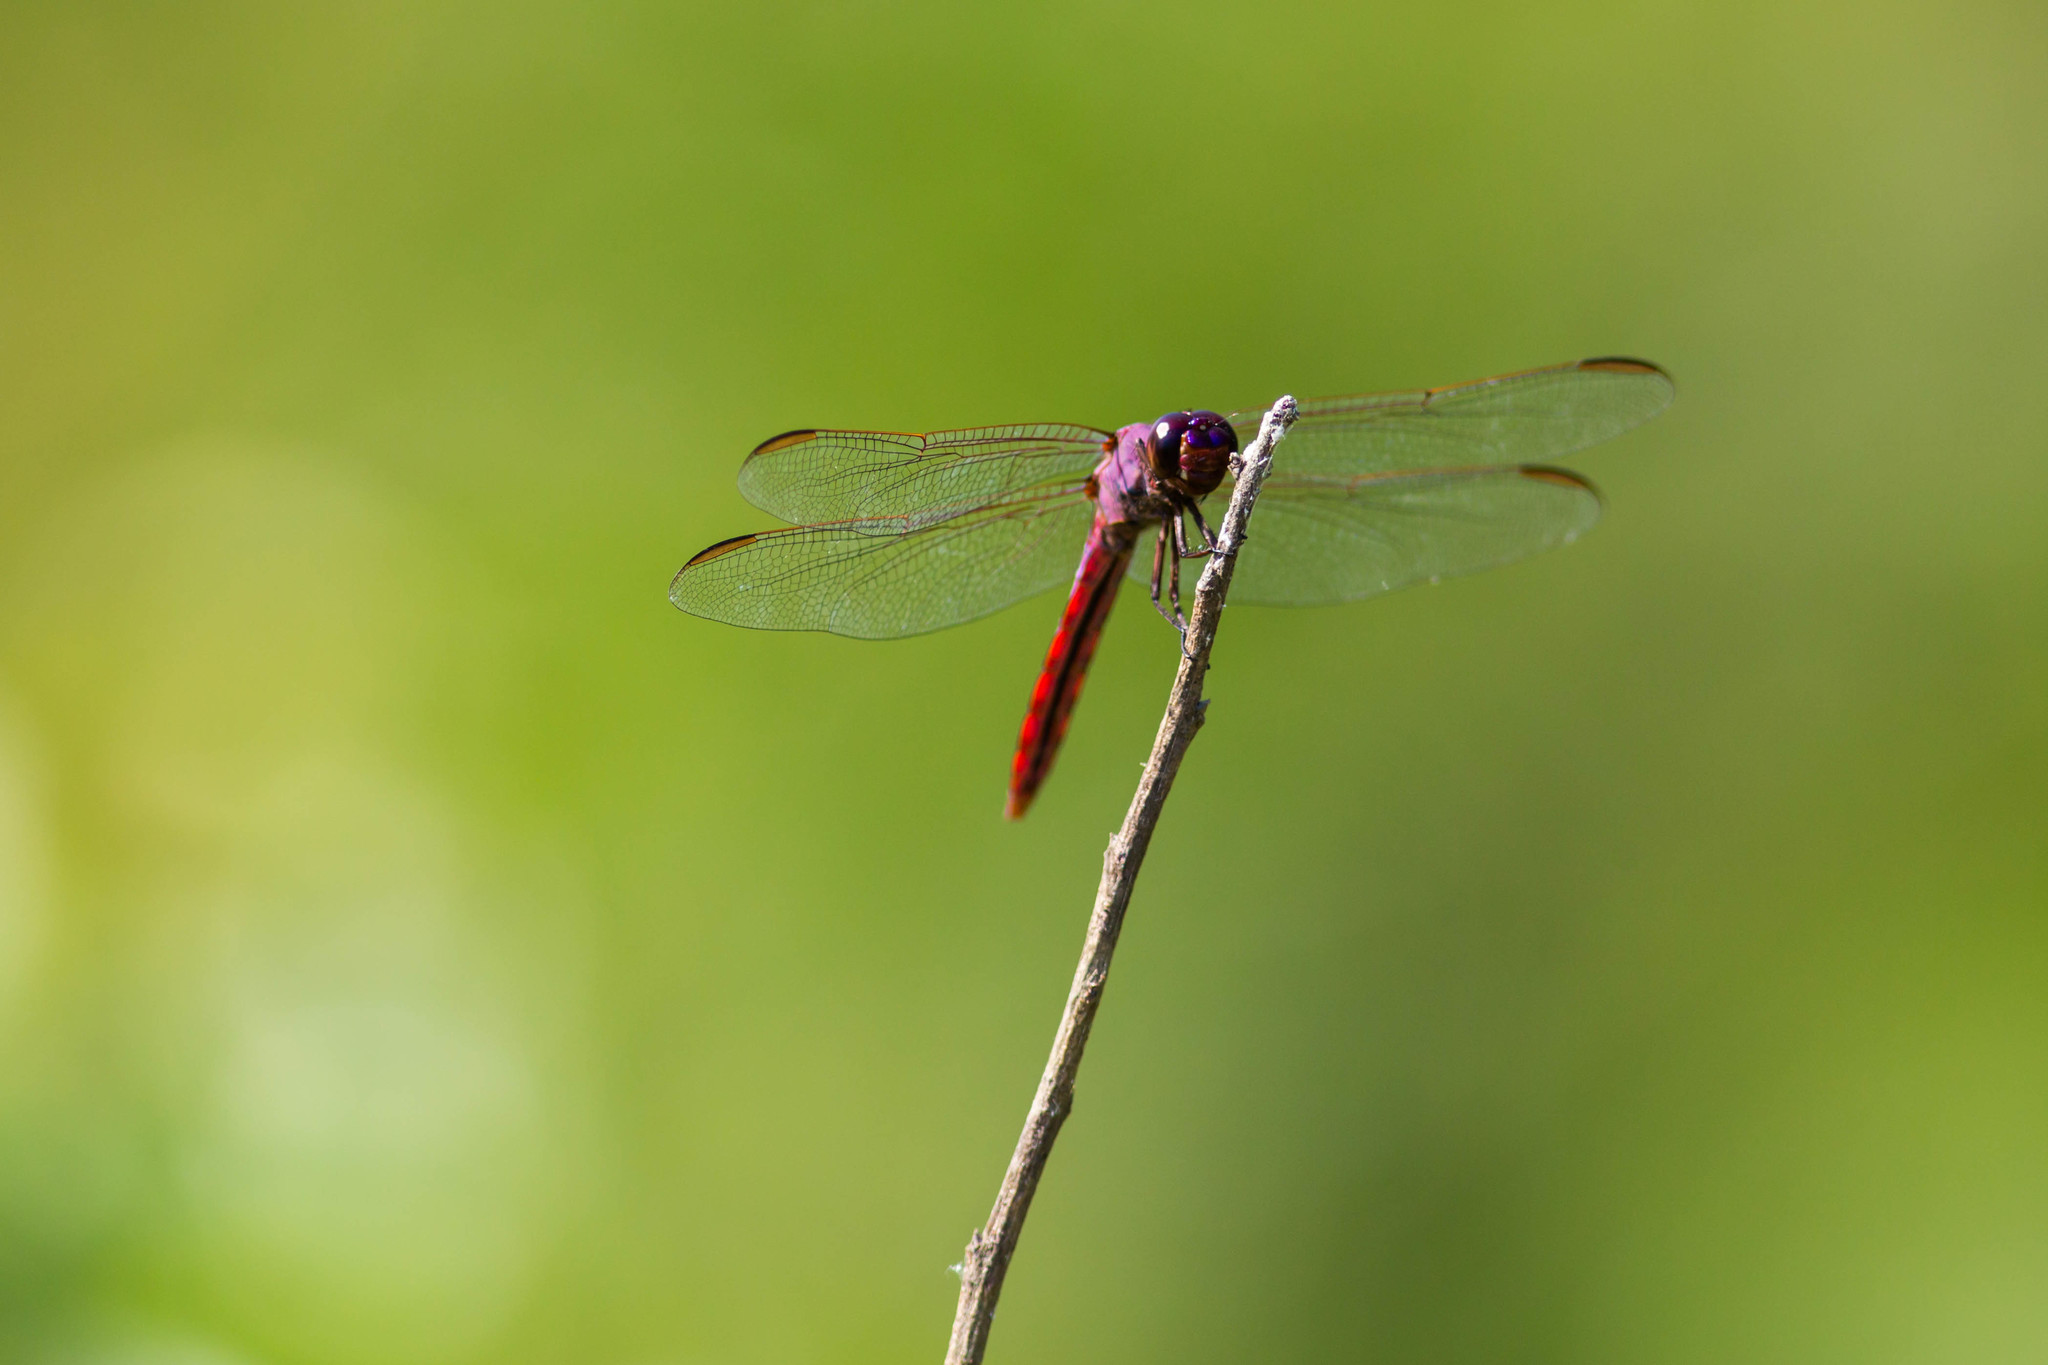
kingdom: Animalia
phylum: Arthropoda
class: Insecta
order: Odonata
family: Libellulidae
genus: Orthemis
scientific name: Orthemis ferruginea
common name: Roseate skimmer
